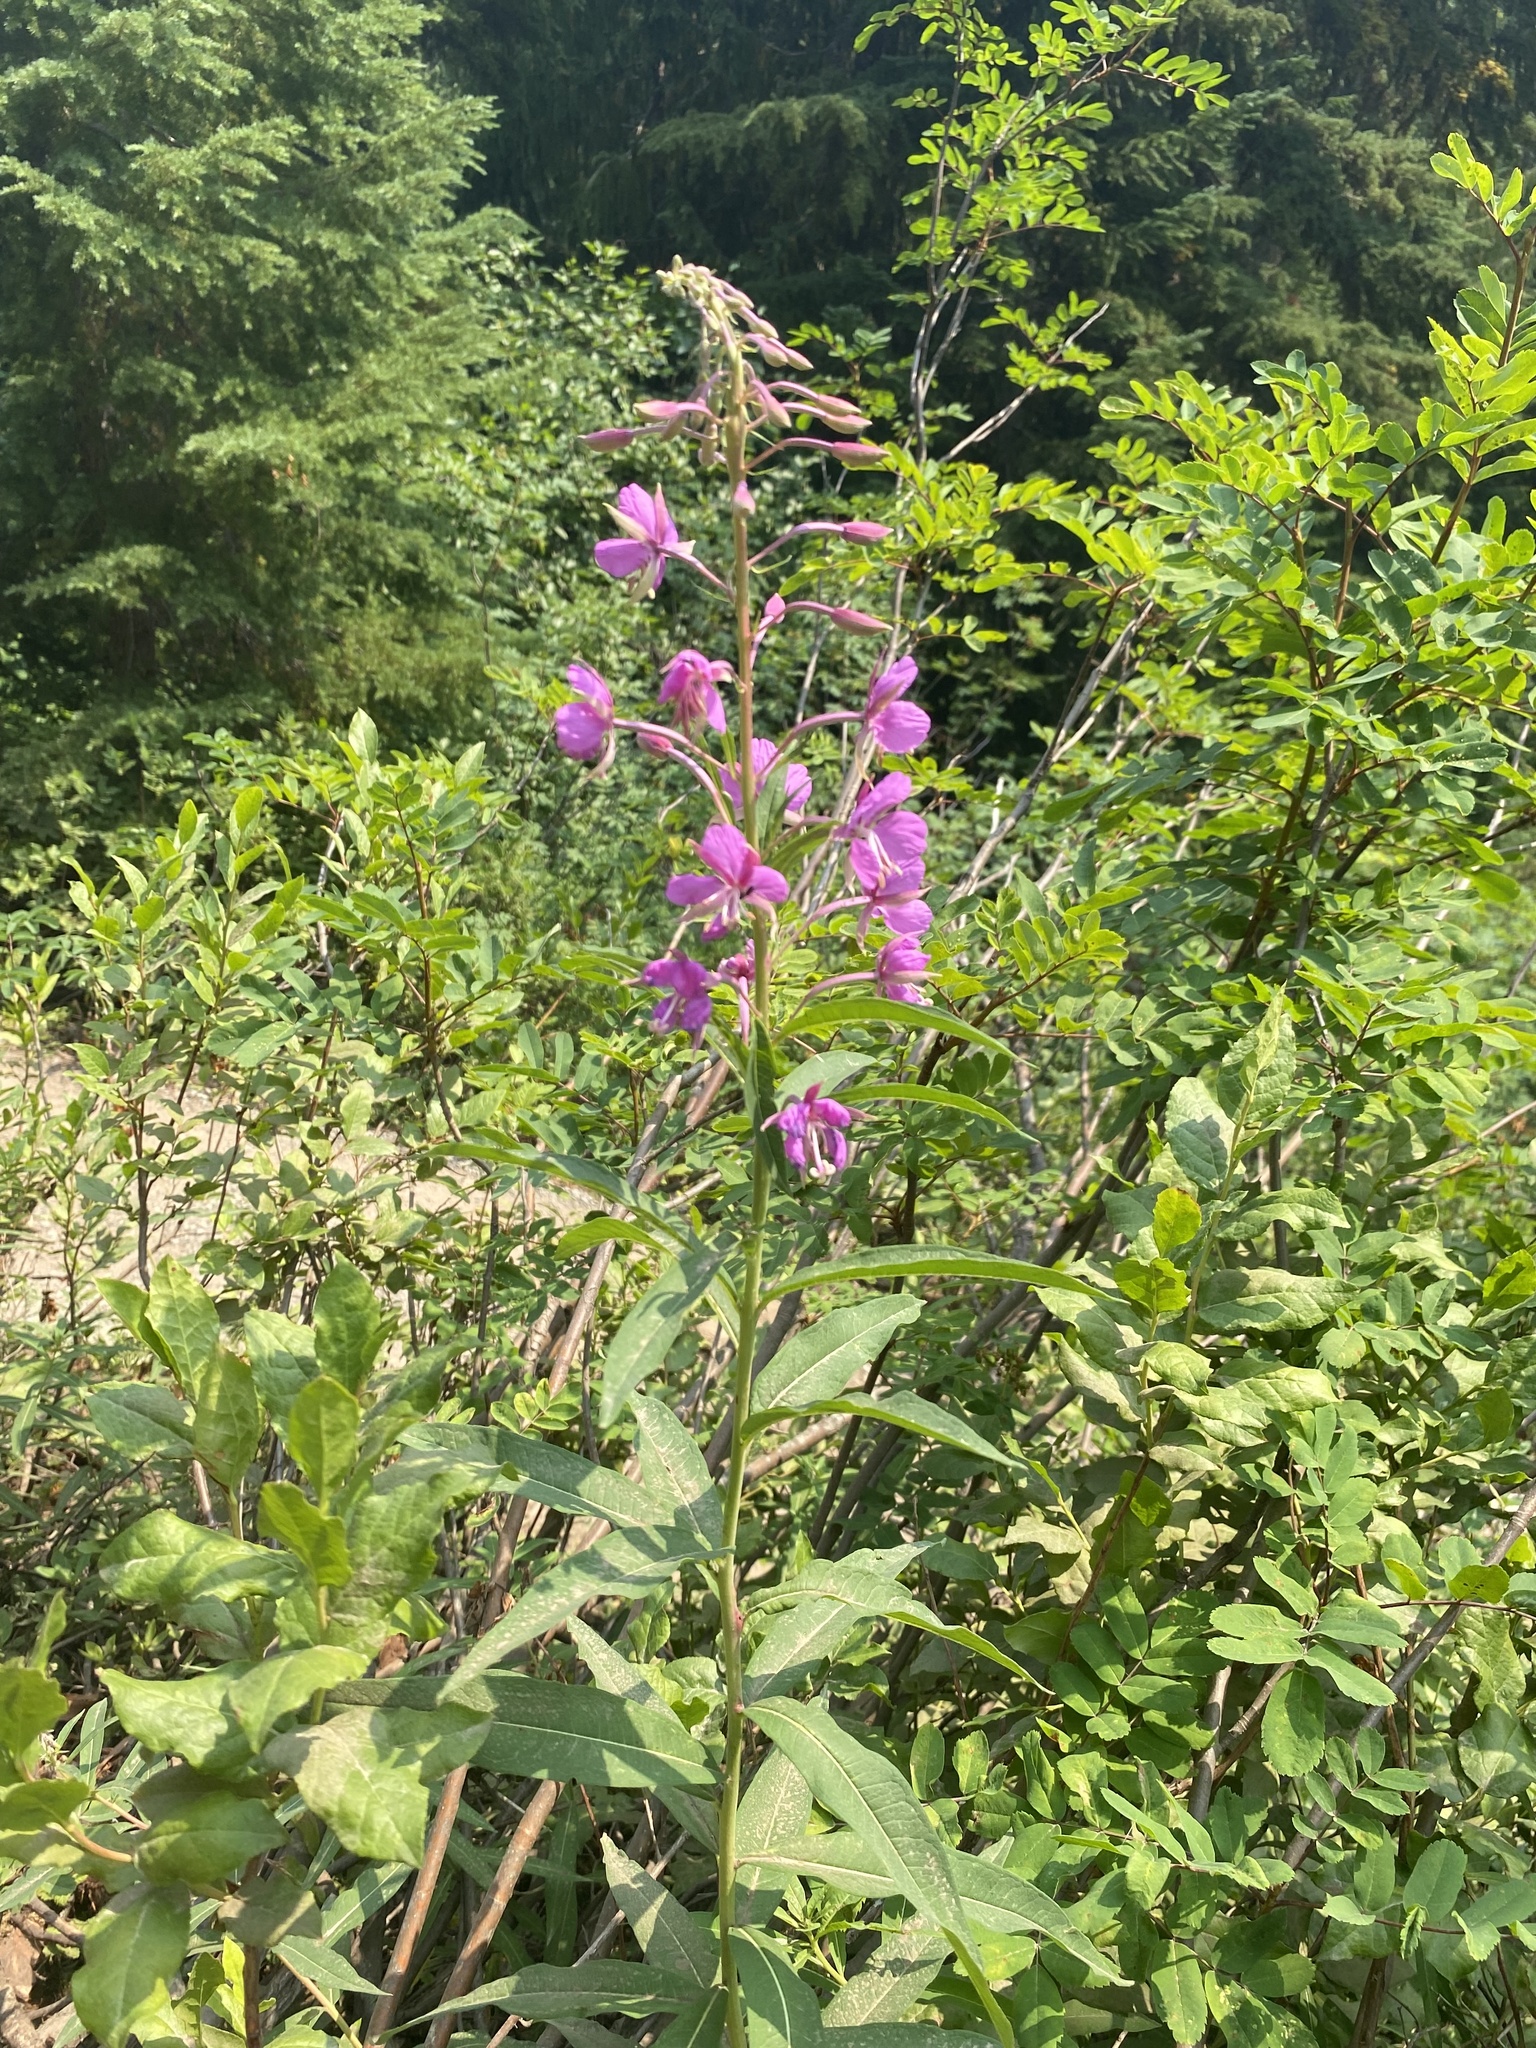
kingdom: Plantae
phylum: Tracheophyta
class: Magnoliopsida
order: Myrtales
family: Onagraceae
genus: Chamaenerion
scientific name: Chamaenerion angustifolium
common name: Fireweed
